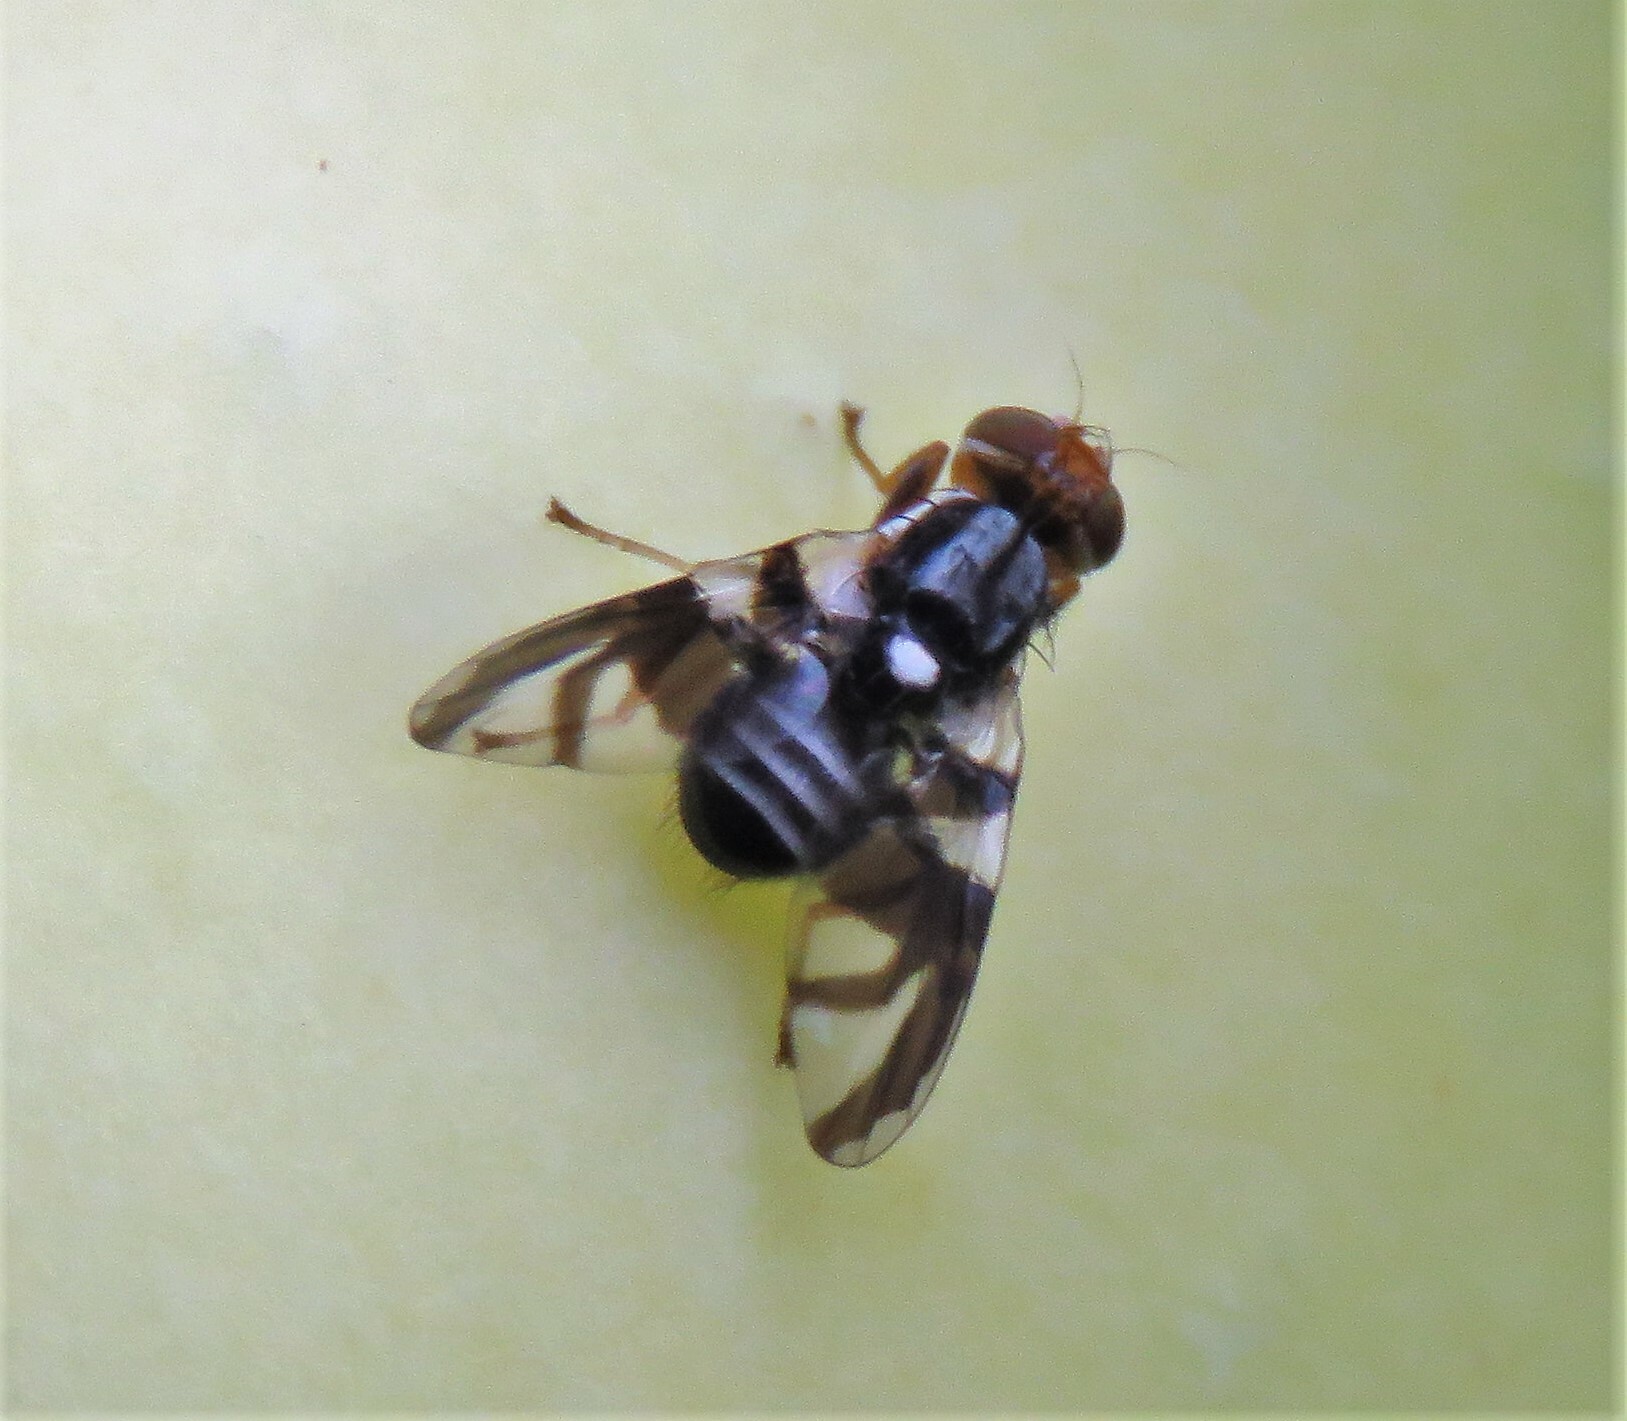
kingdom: Animalia
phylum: Arthropoda
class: Insecta
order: Diptera
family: Tephritidae
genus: Rhagoletis
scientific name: Rhagoletis pomonella
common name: Apple maggot
